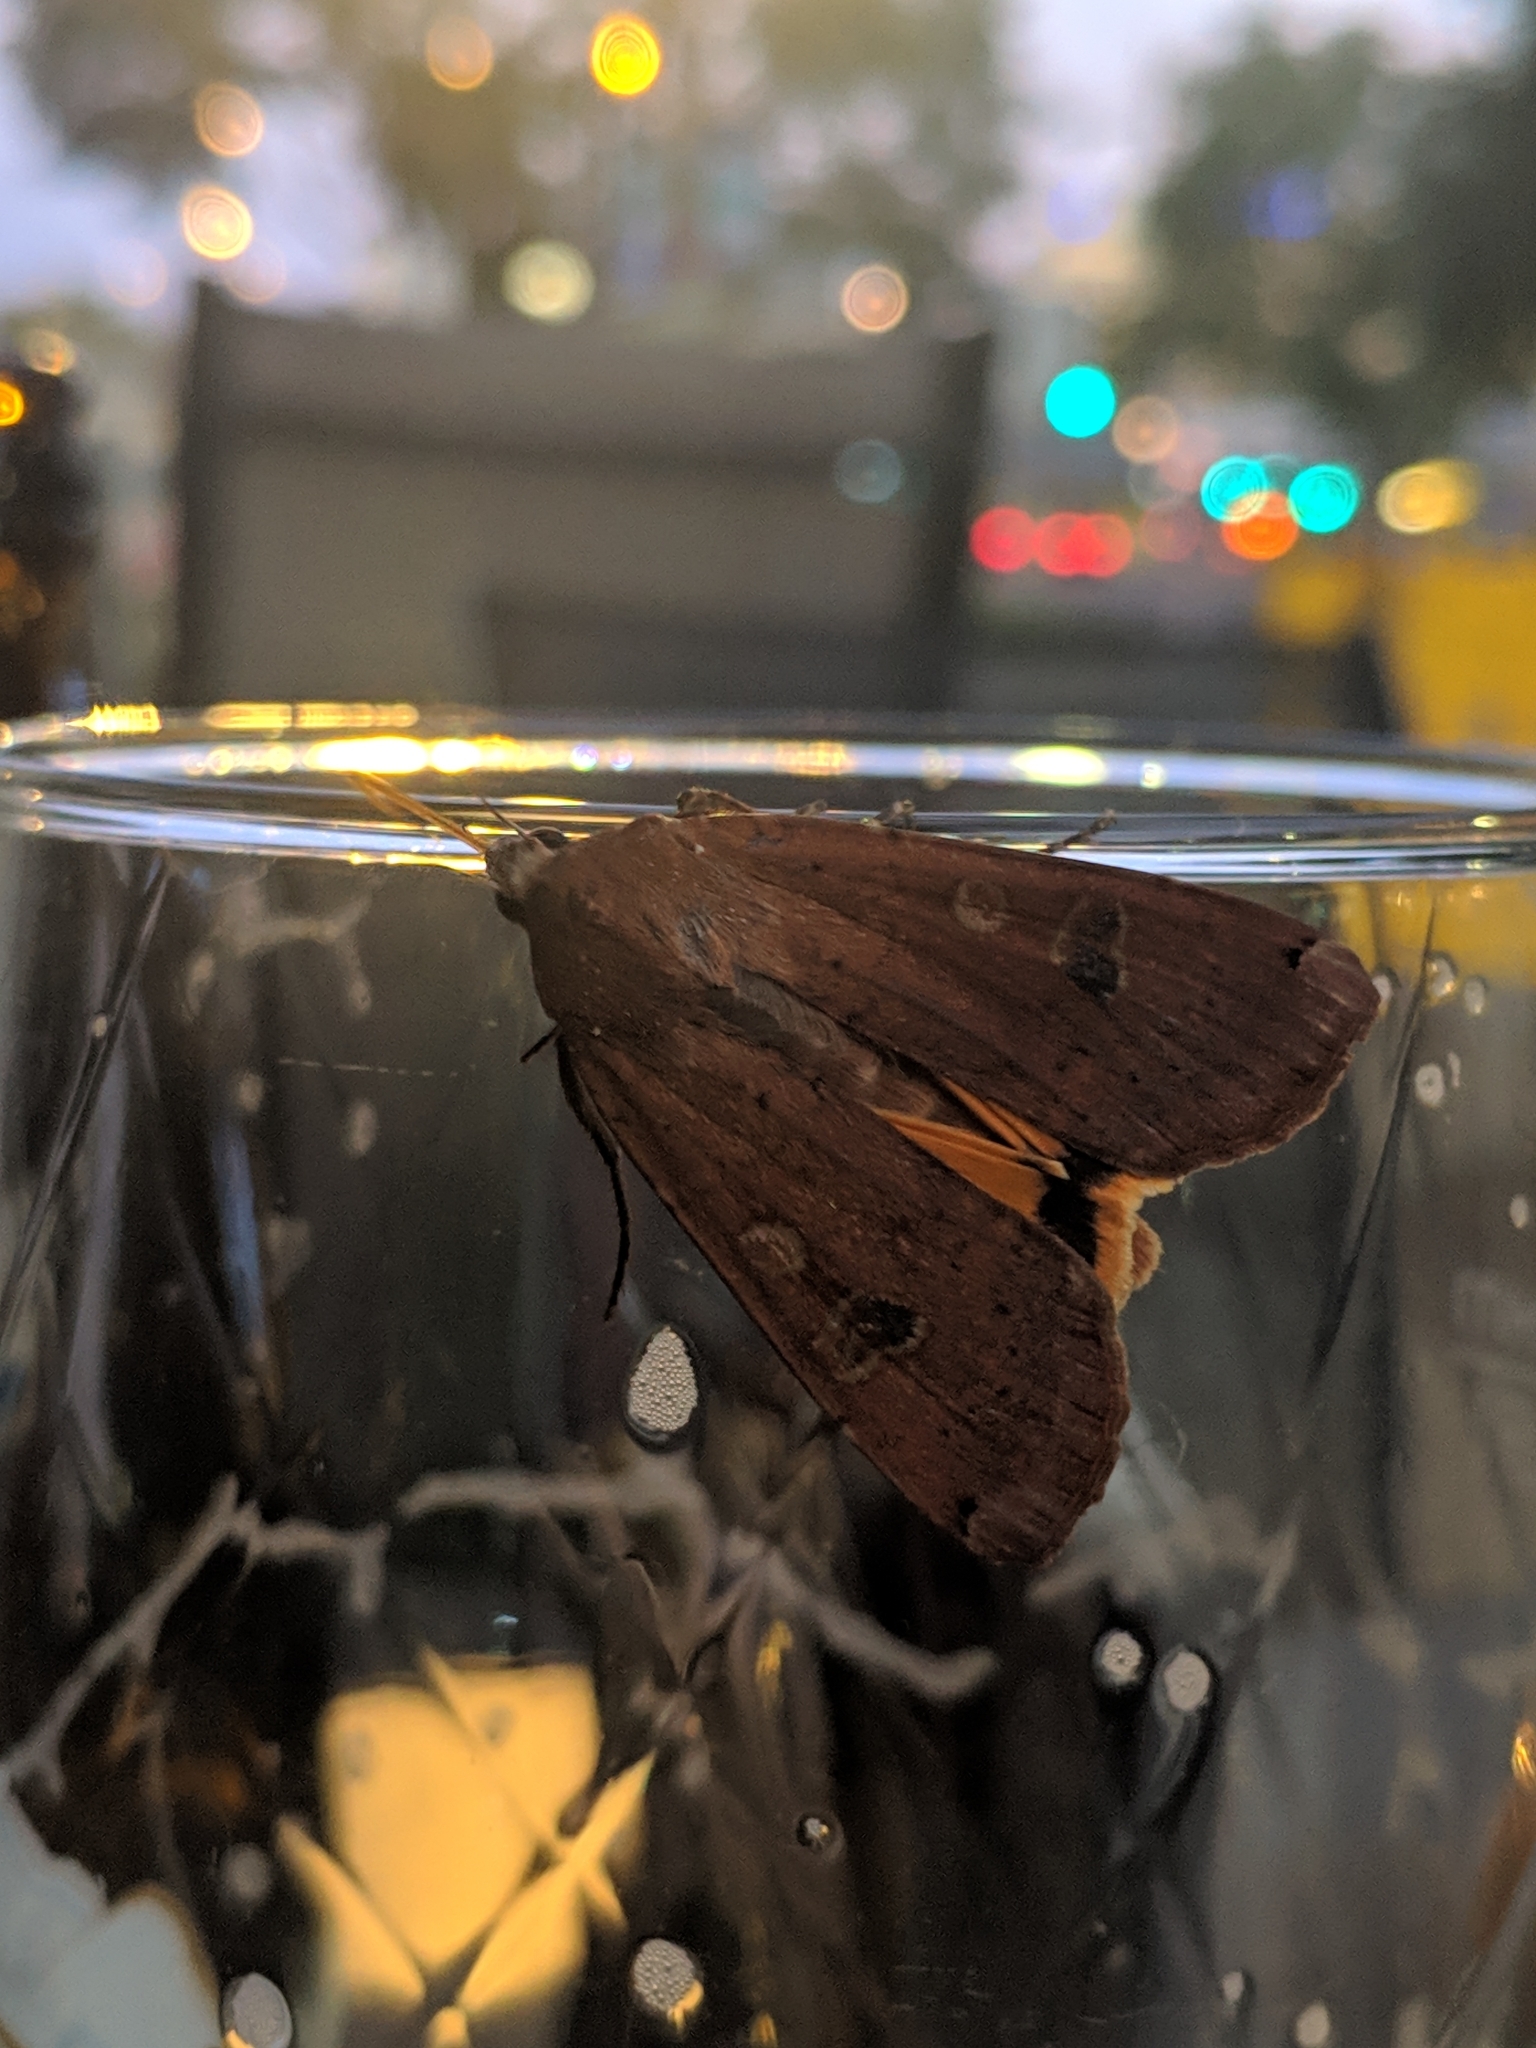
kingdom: Animalia
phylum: Arthropoda
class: Insecta
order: Lepidoptera
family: Noctuidae
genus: Noctua
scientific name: Noctua pronuba
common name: Large yellow underwing
